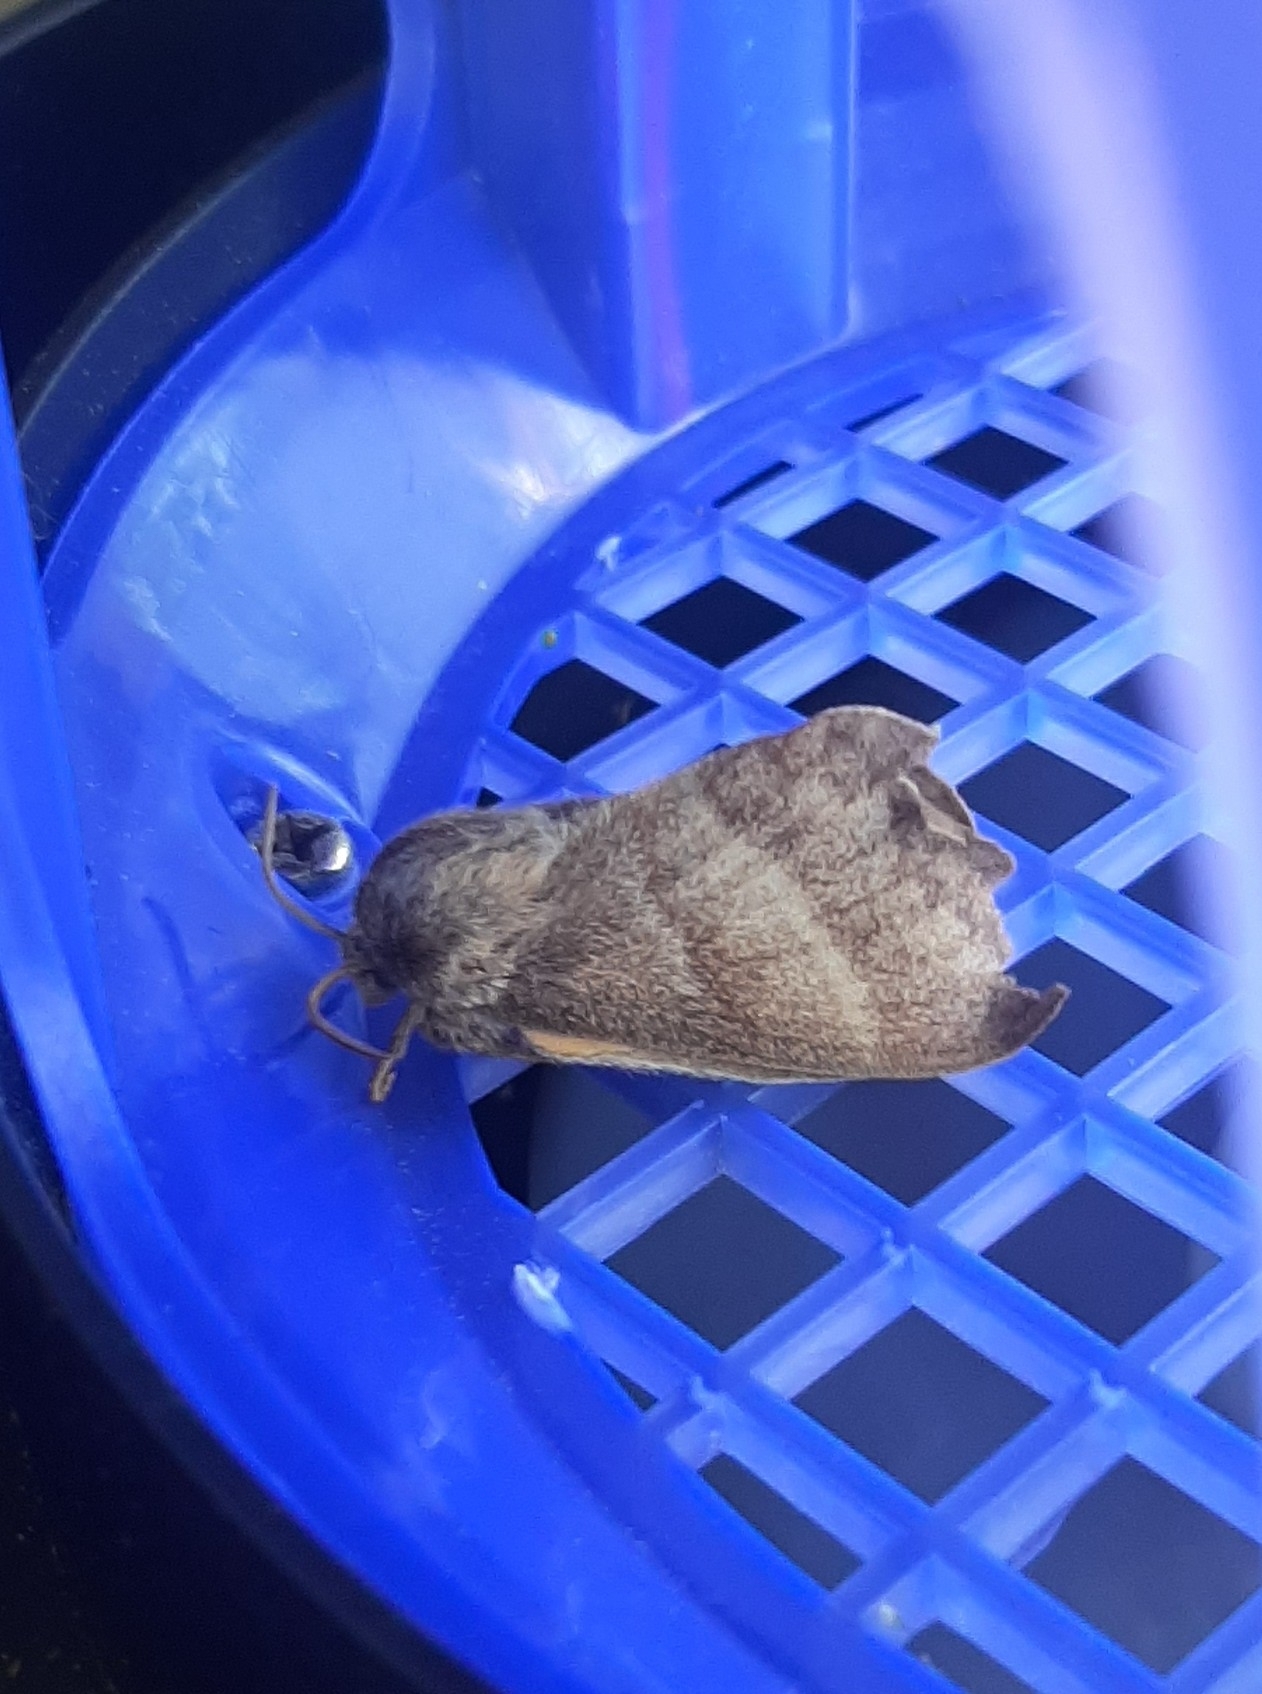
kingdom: Animalia
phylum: Arthropoda
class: Insecta
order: Lepidoptera
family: Lasiocampidae
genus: Macrothylacia
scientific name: Macrothylacia rubi
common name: Fox moth
